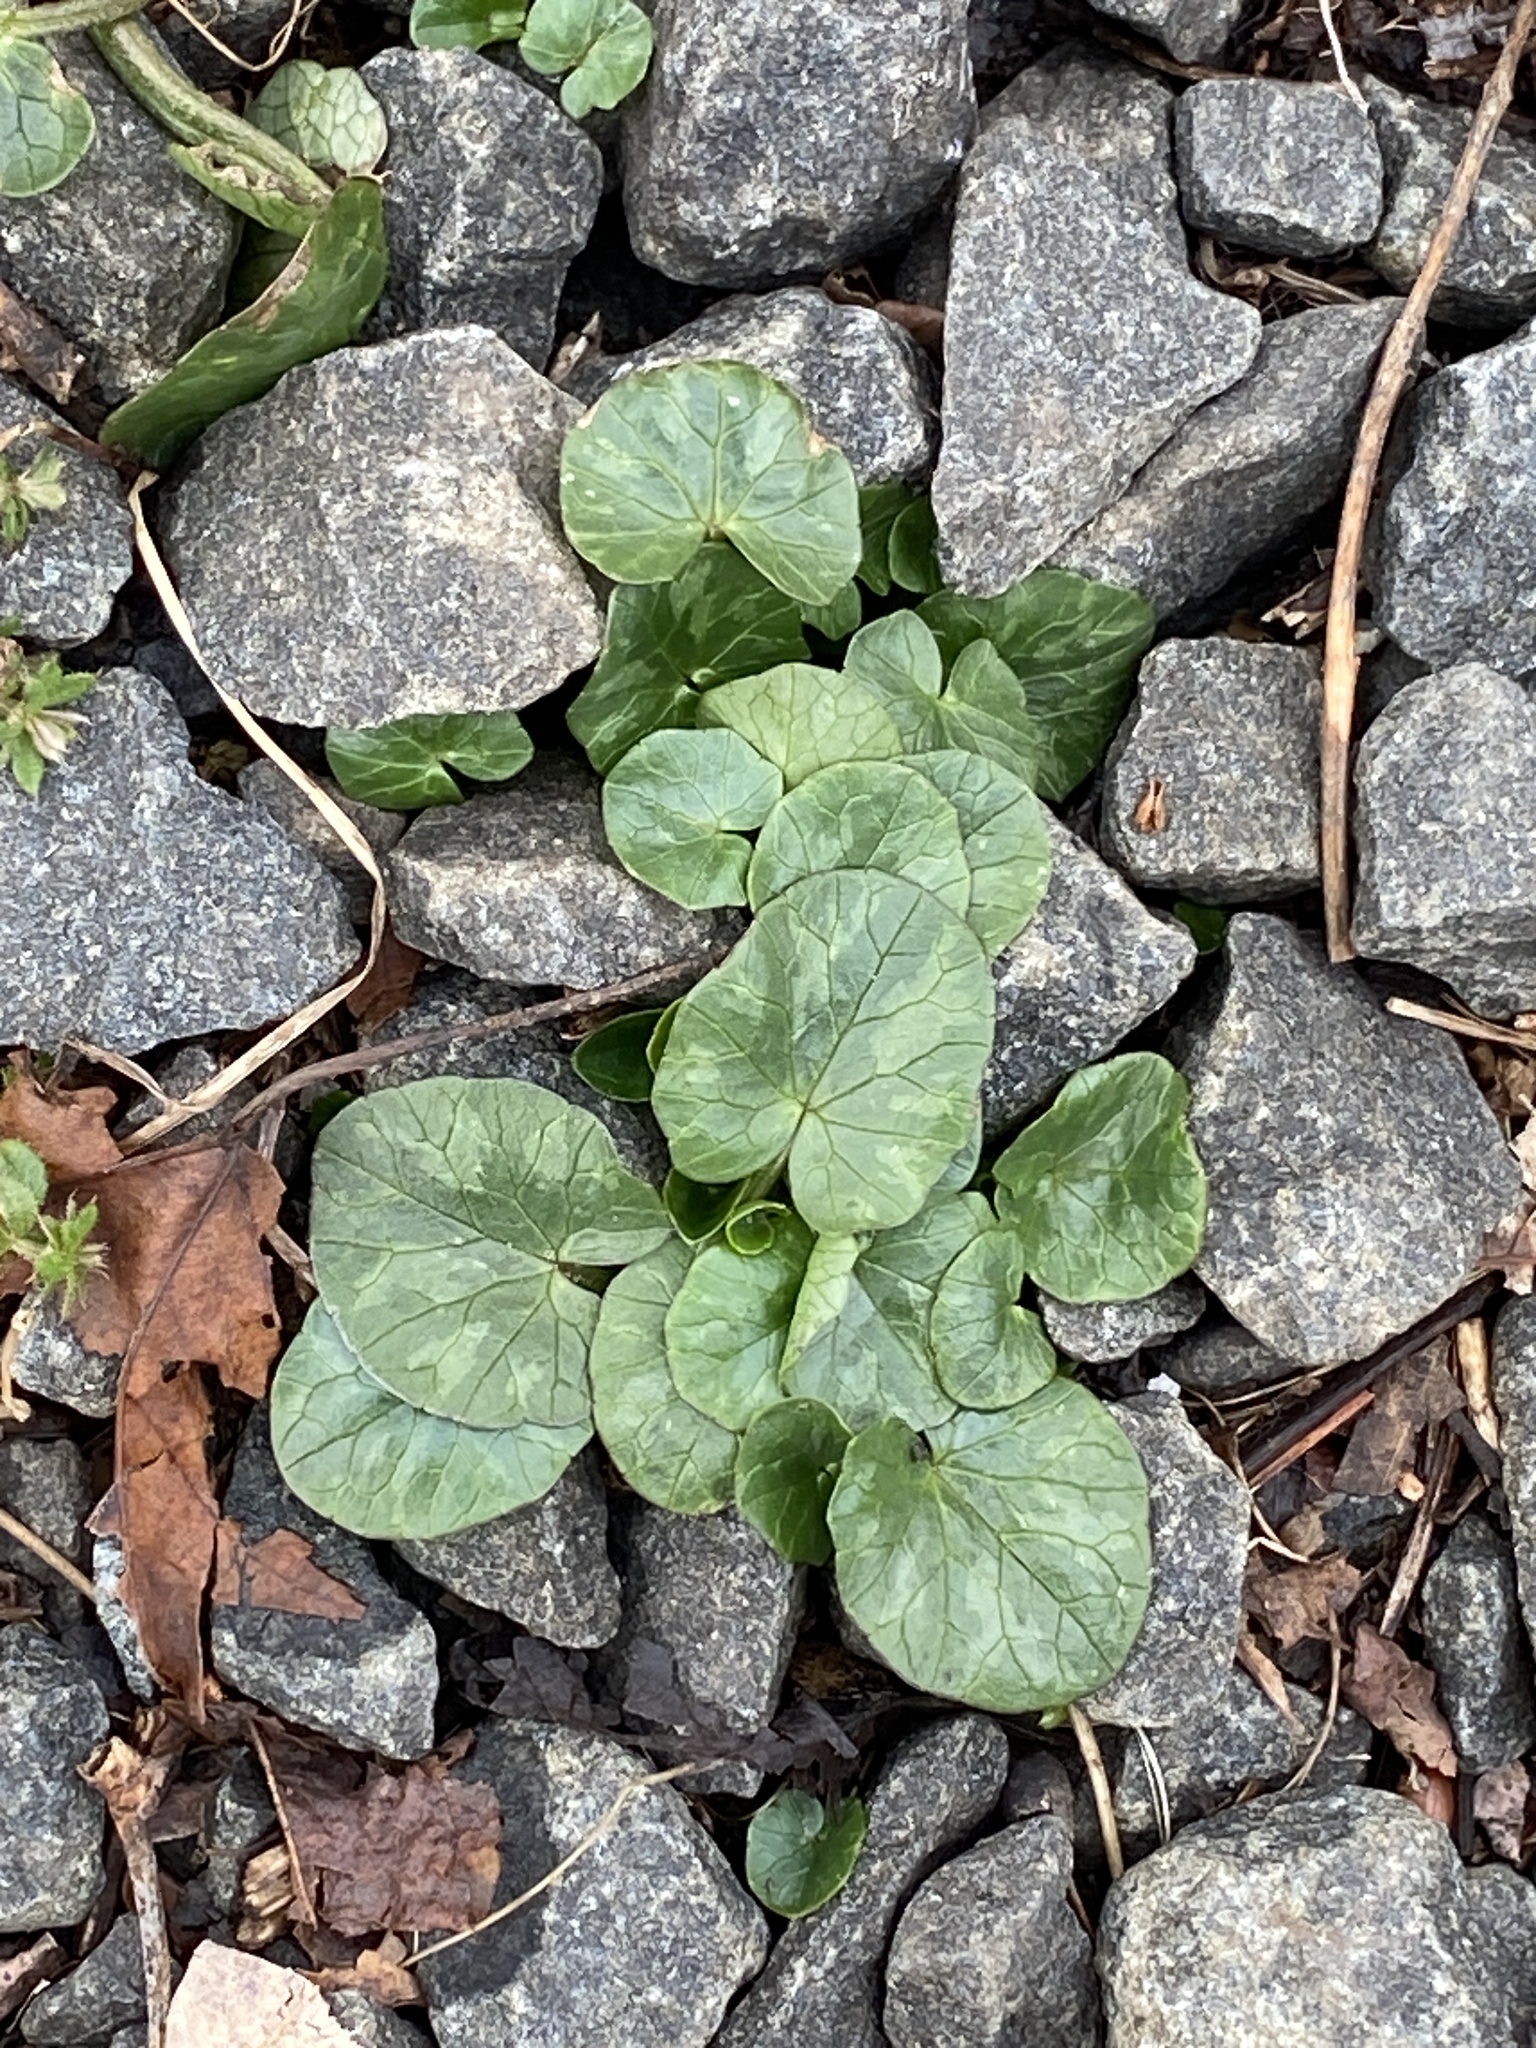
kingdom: Plantae
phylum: Tracheophyta
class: Magnoliopsida
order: Ranunculales
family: Ranunculaceae
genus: Ficaria
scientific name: Ficaria verna
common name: Lesser celandine
